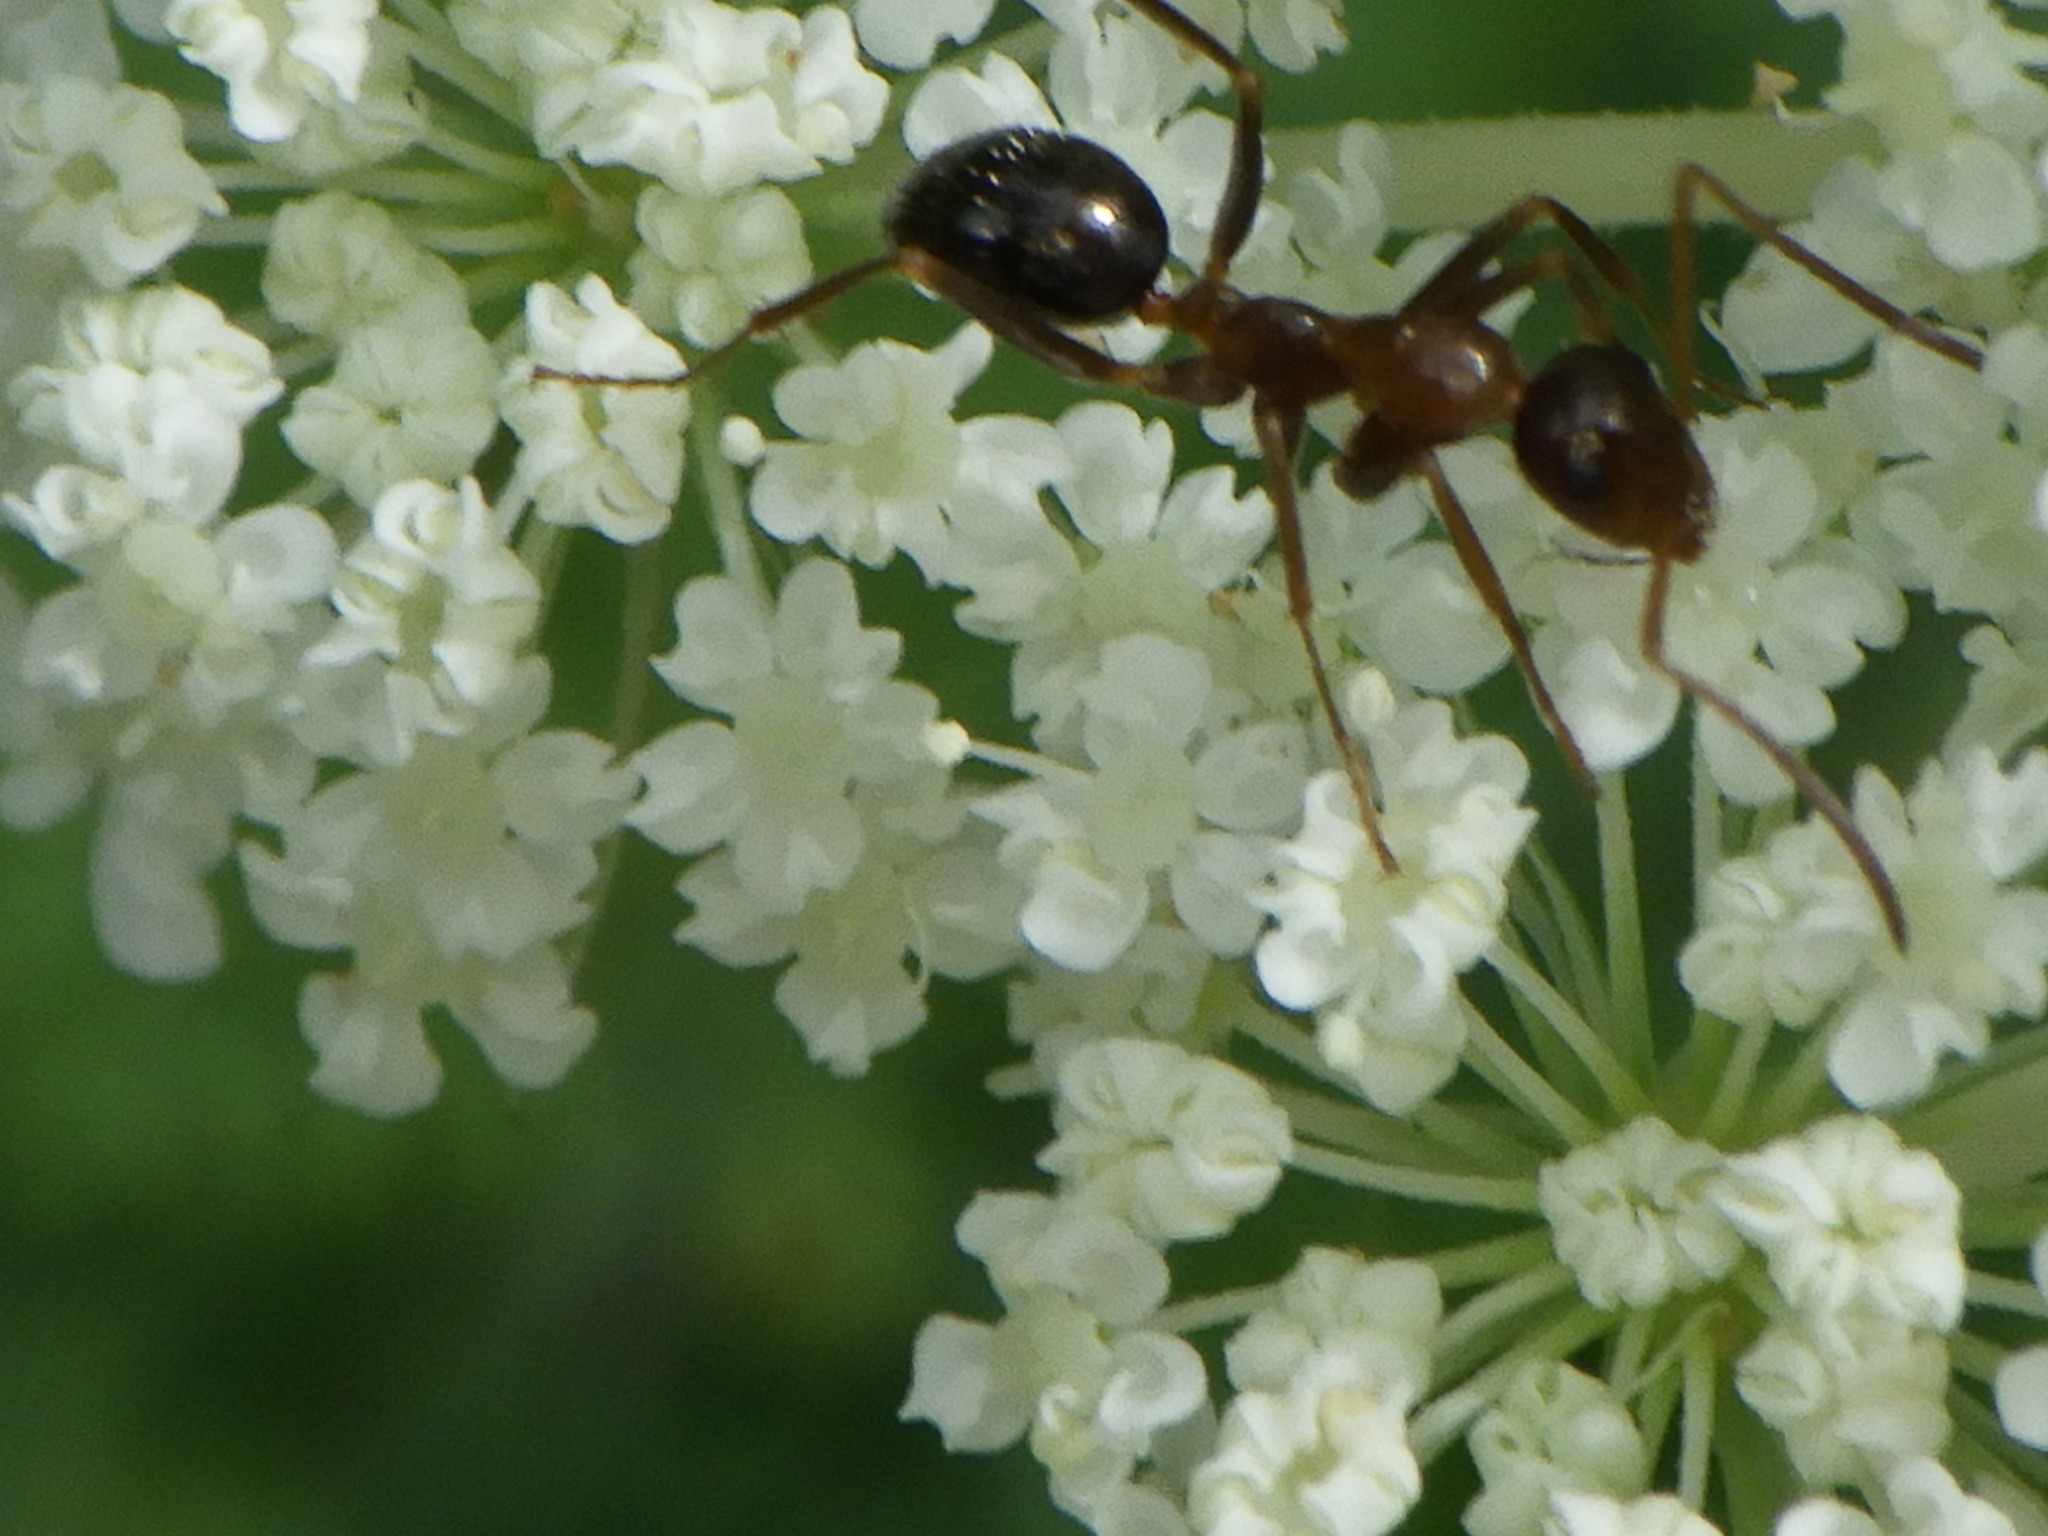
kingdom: Animalia
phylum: Arthropoda
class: Insecta
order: Hymenoptera
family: Formicidae
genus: Formica
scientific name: Formica
